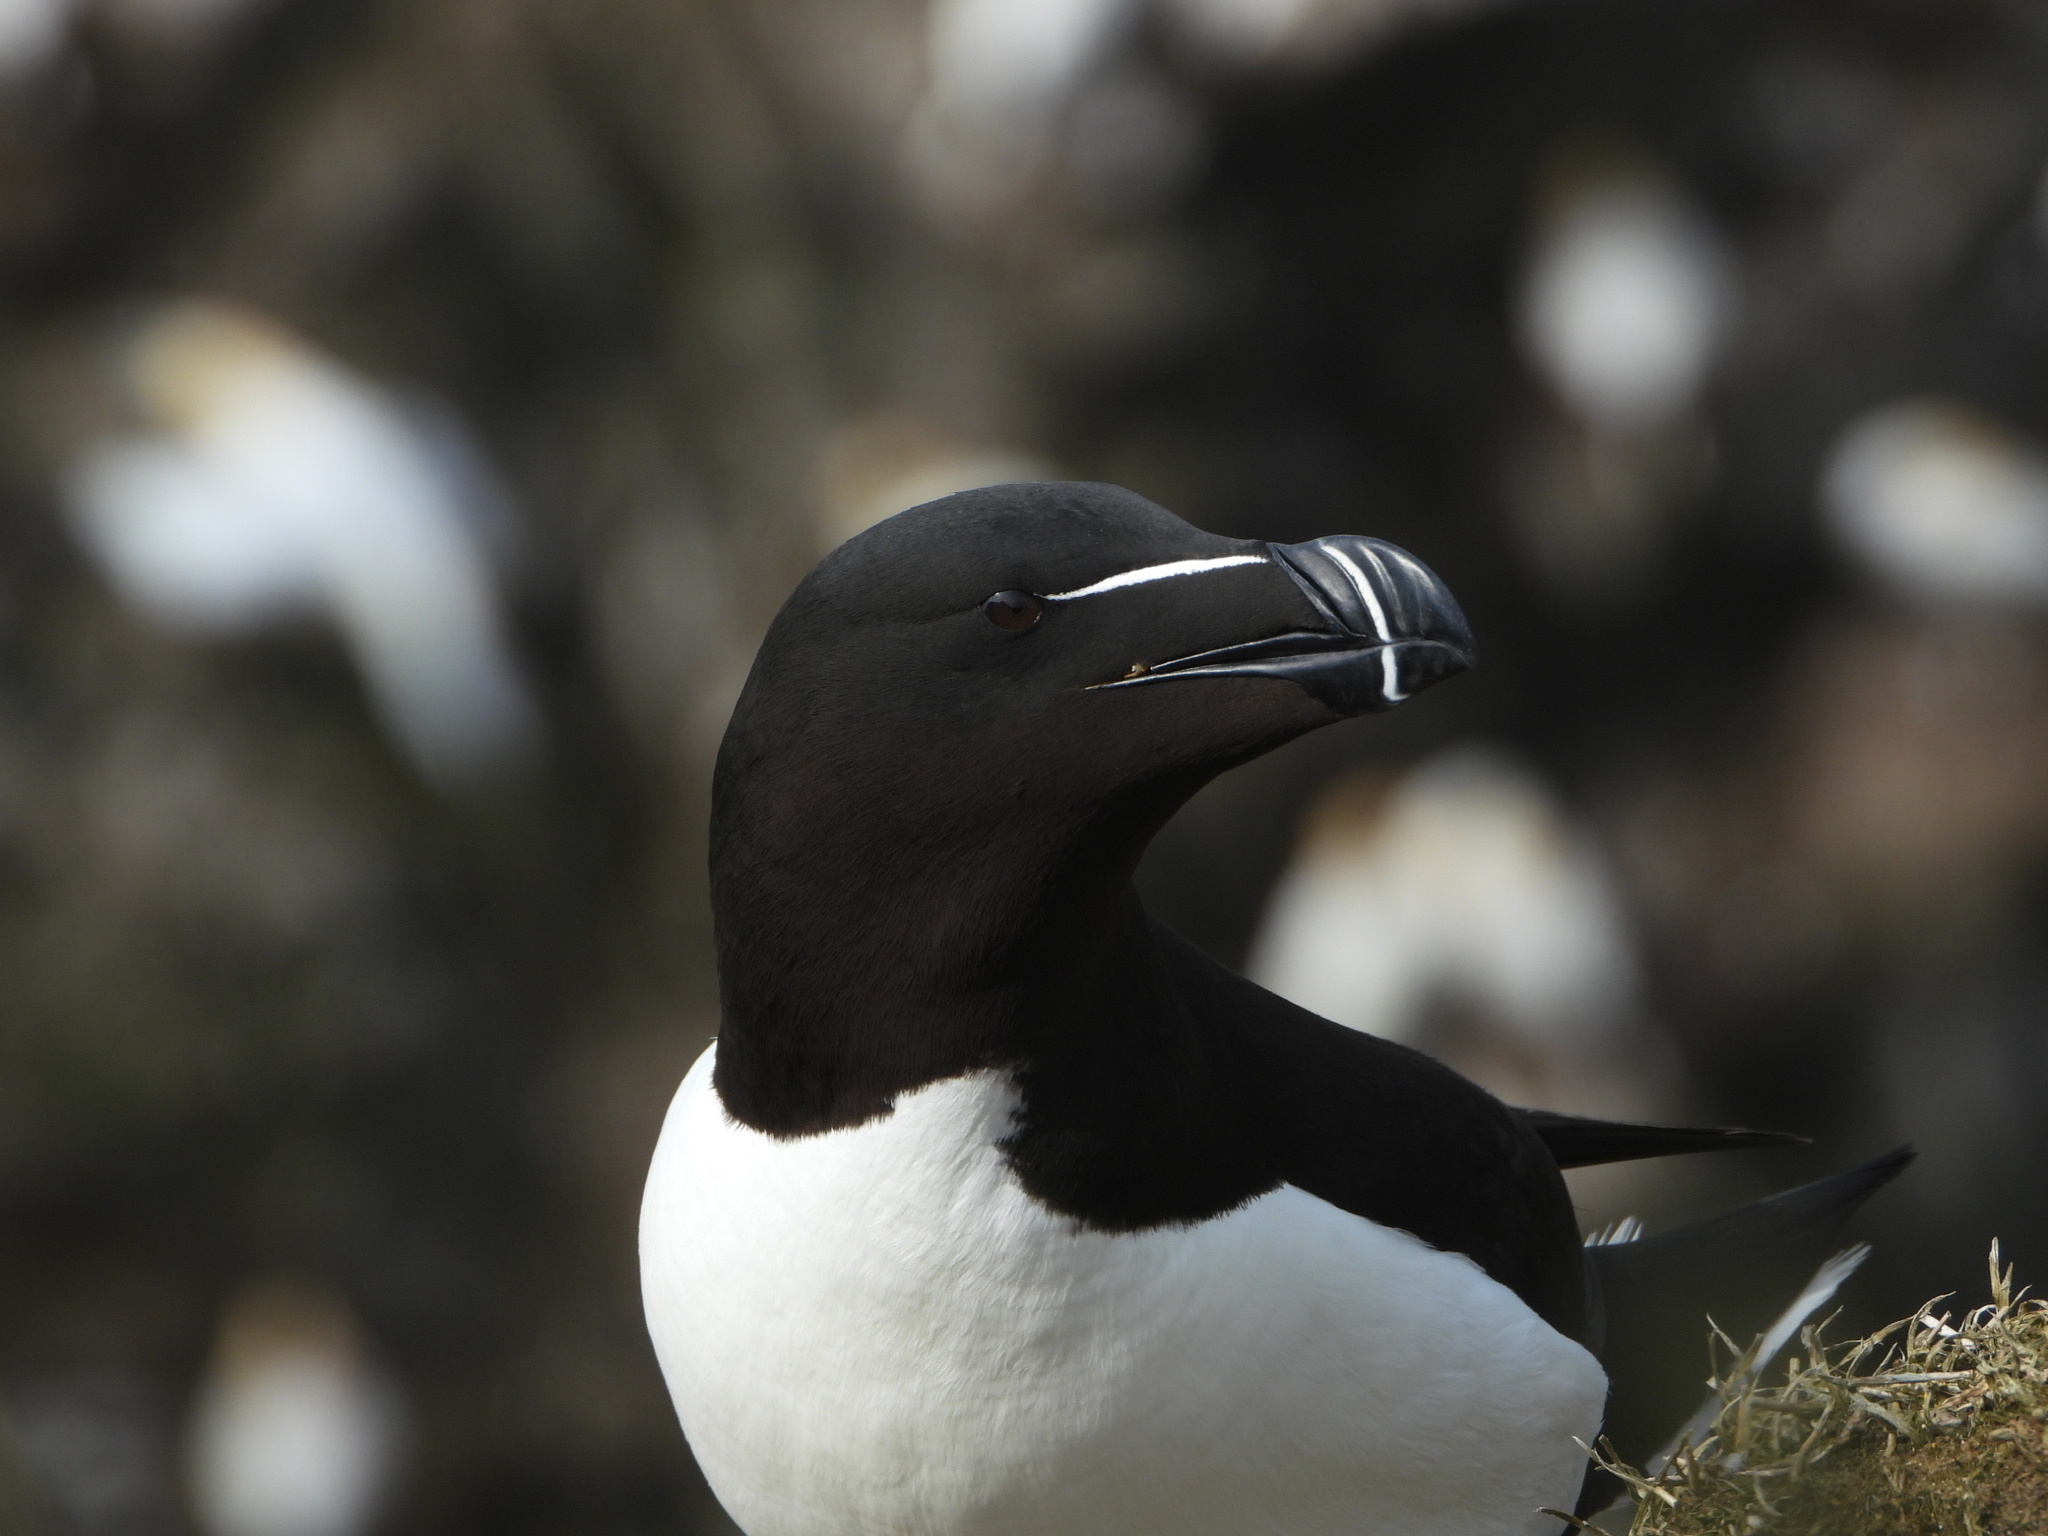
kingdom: Animalia
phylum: Chordata
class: Aves
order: Charadriiformes
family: Alcidae
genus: Alca
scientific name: Alca torda
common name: Razorbill
